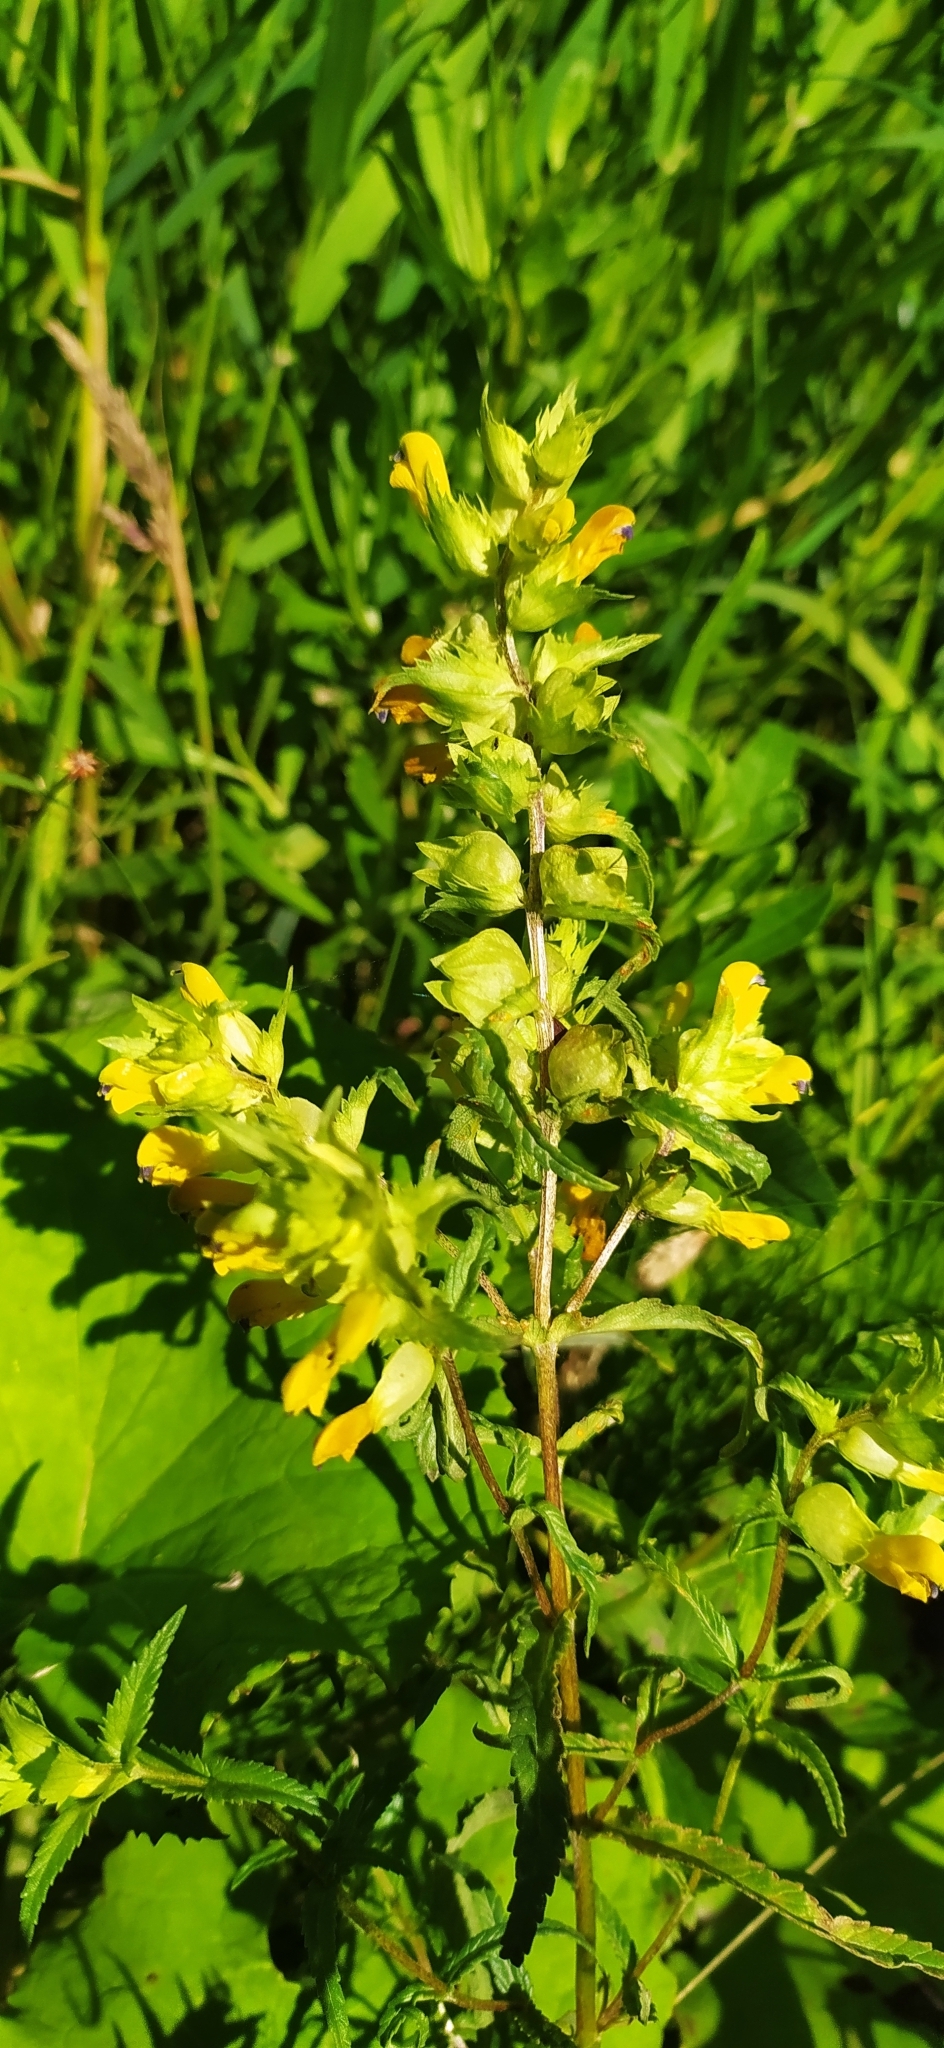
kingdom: Plantae
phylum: Tracheophyta
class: Magnoliopsida
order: Lamiales
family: Orobanchaceae
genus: Rhinanthus
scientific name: Rhinanthus serotinus
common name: Late-flowering yellow rattle
